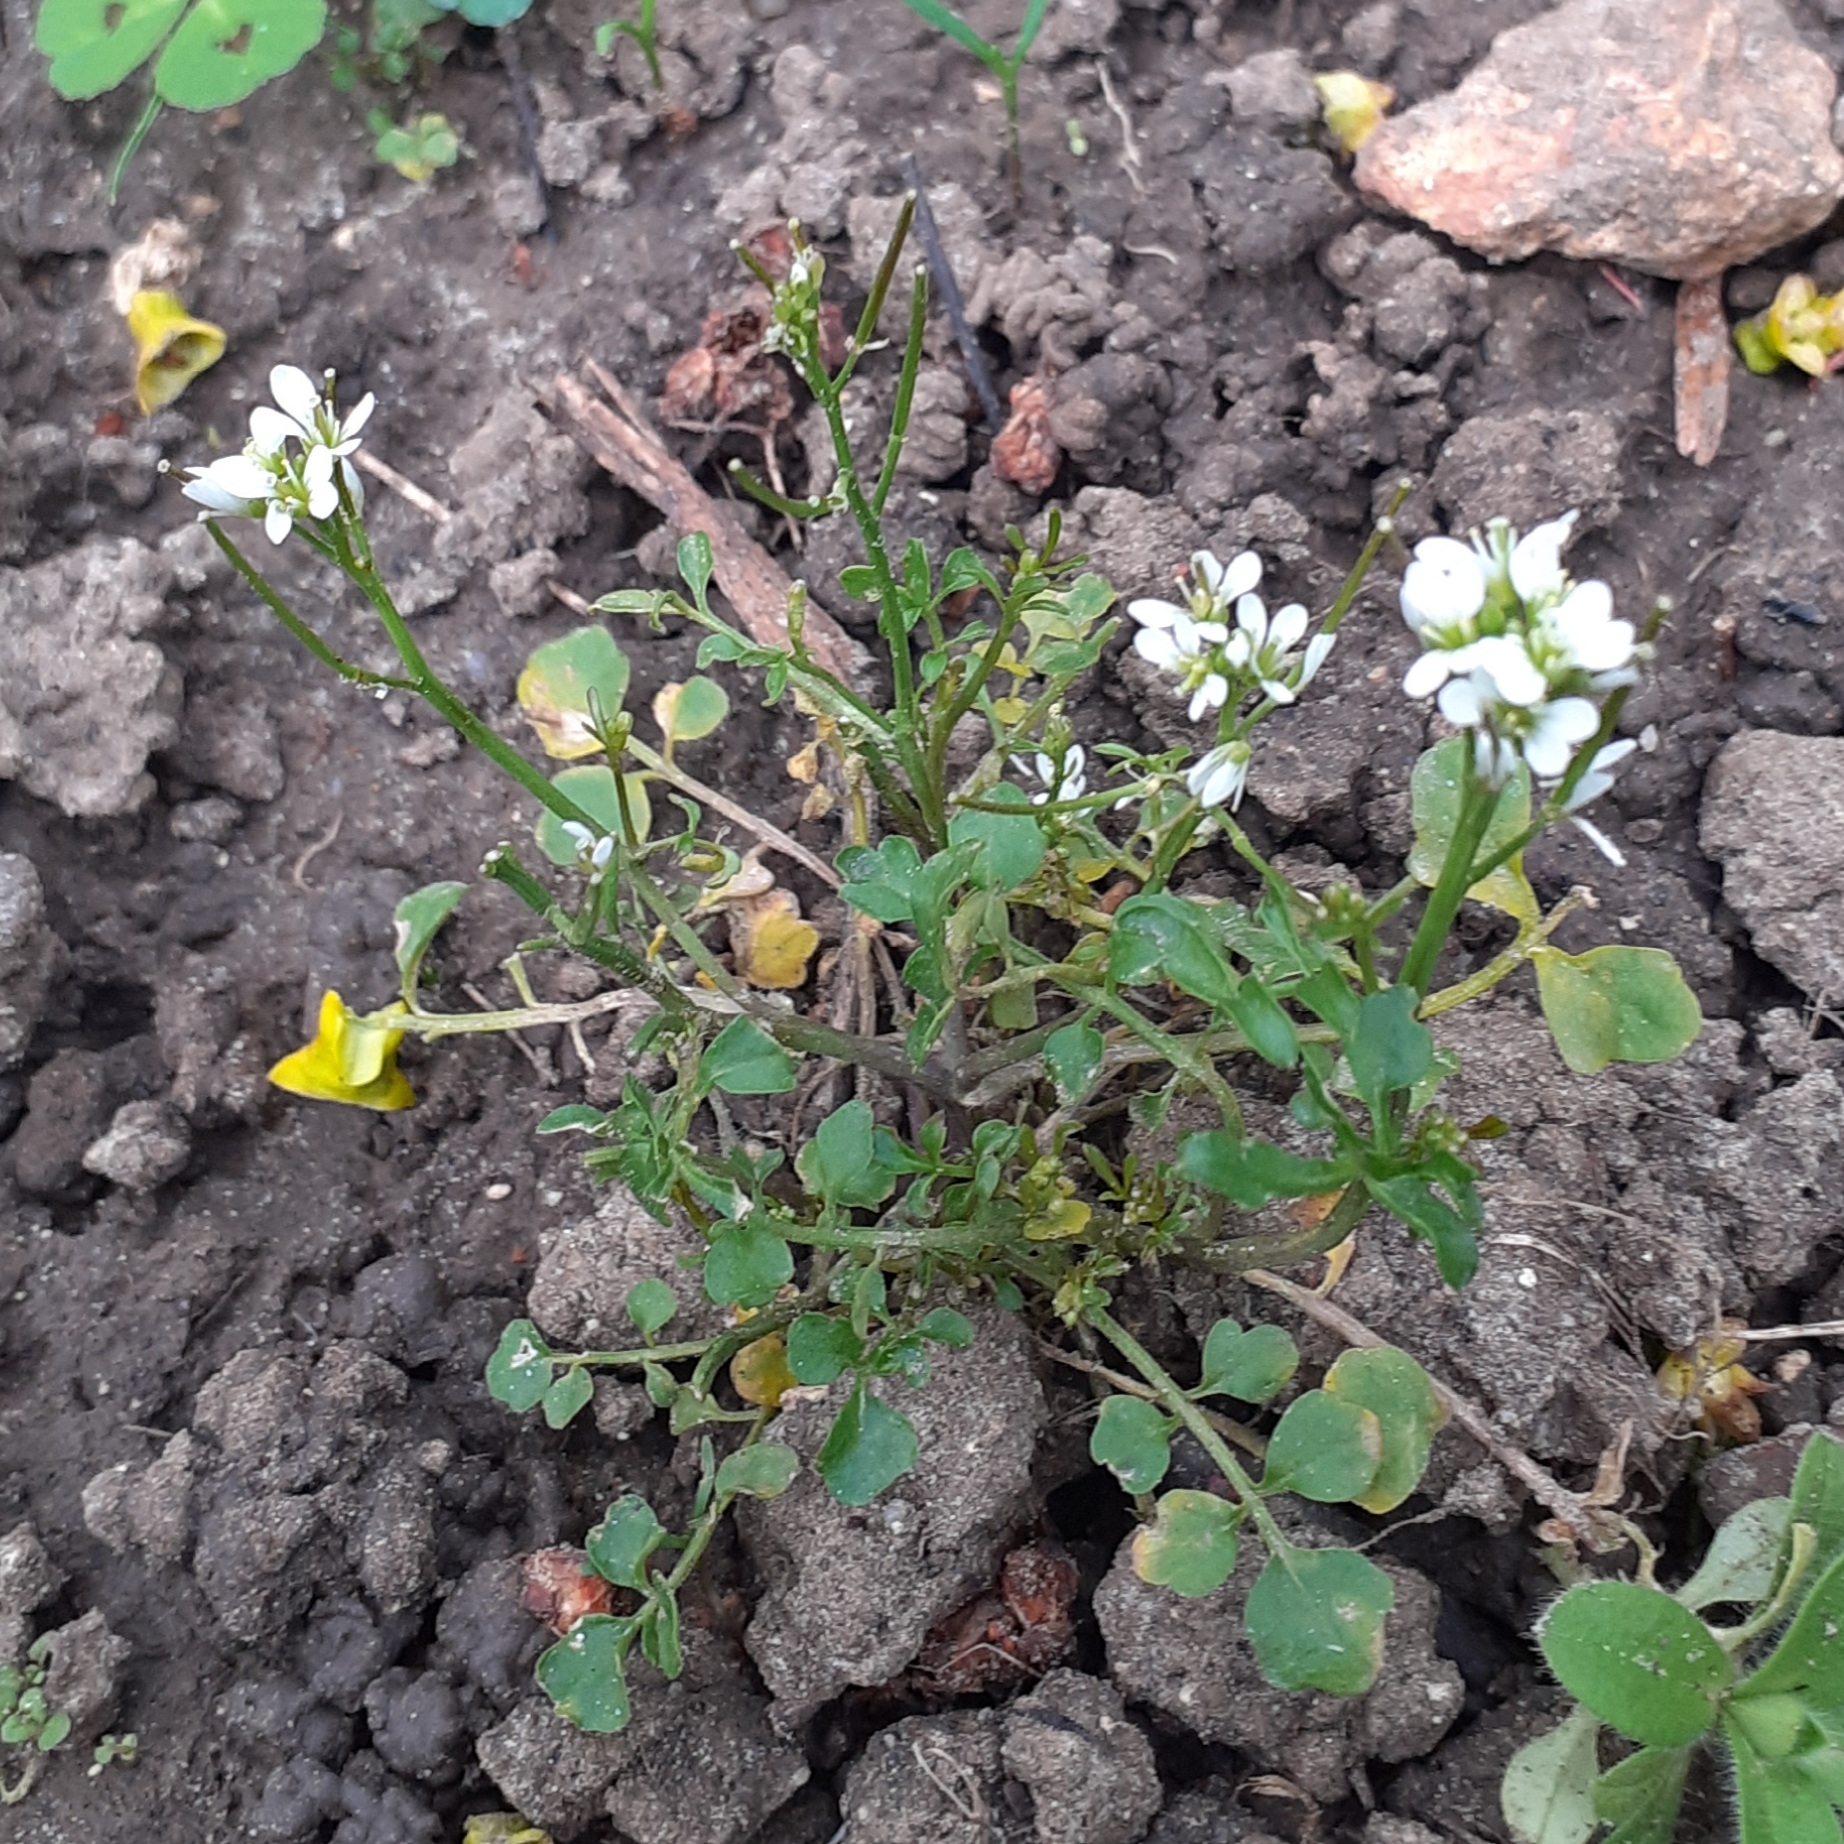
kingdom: Plantae
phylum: Tracheophyta
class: Magnoliopsida
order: Brassicales
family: Brassicaceae
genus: Cardamine
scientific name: Cardamine hirsuta
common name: Hairy bittercress
